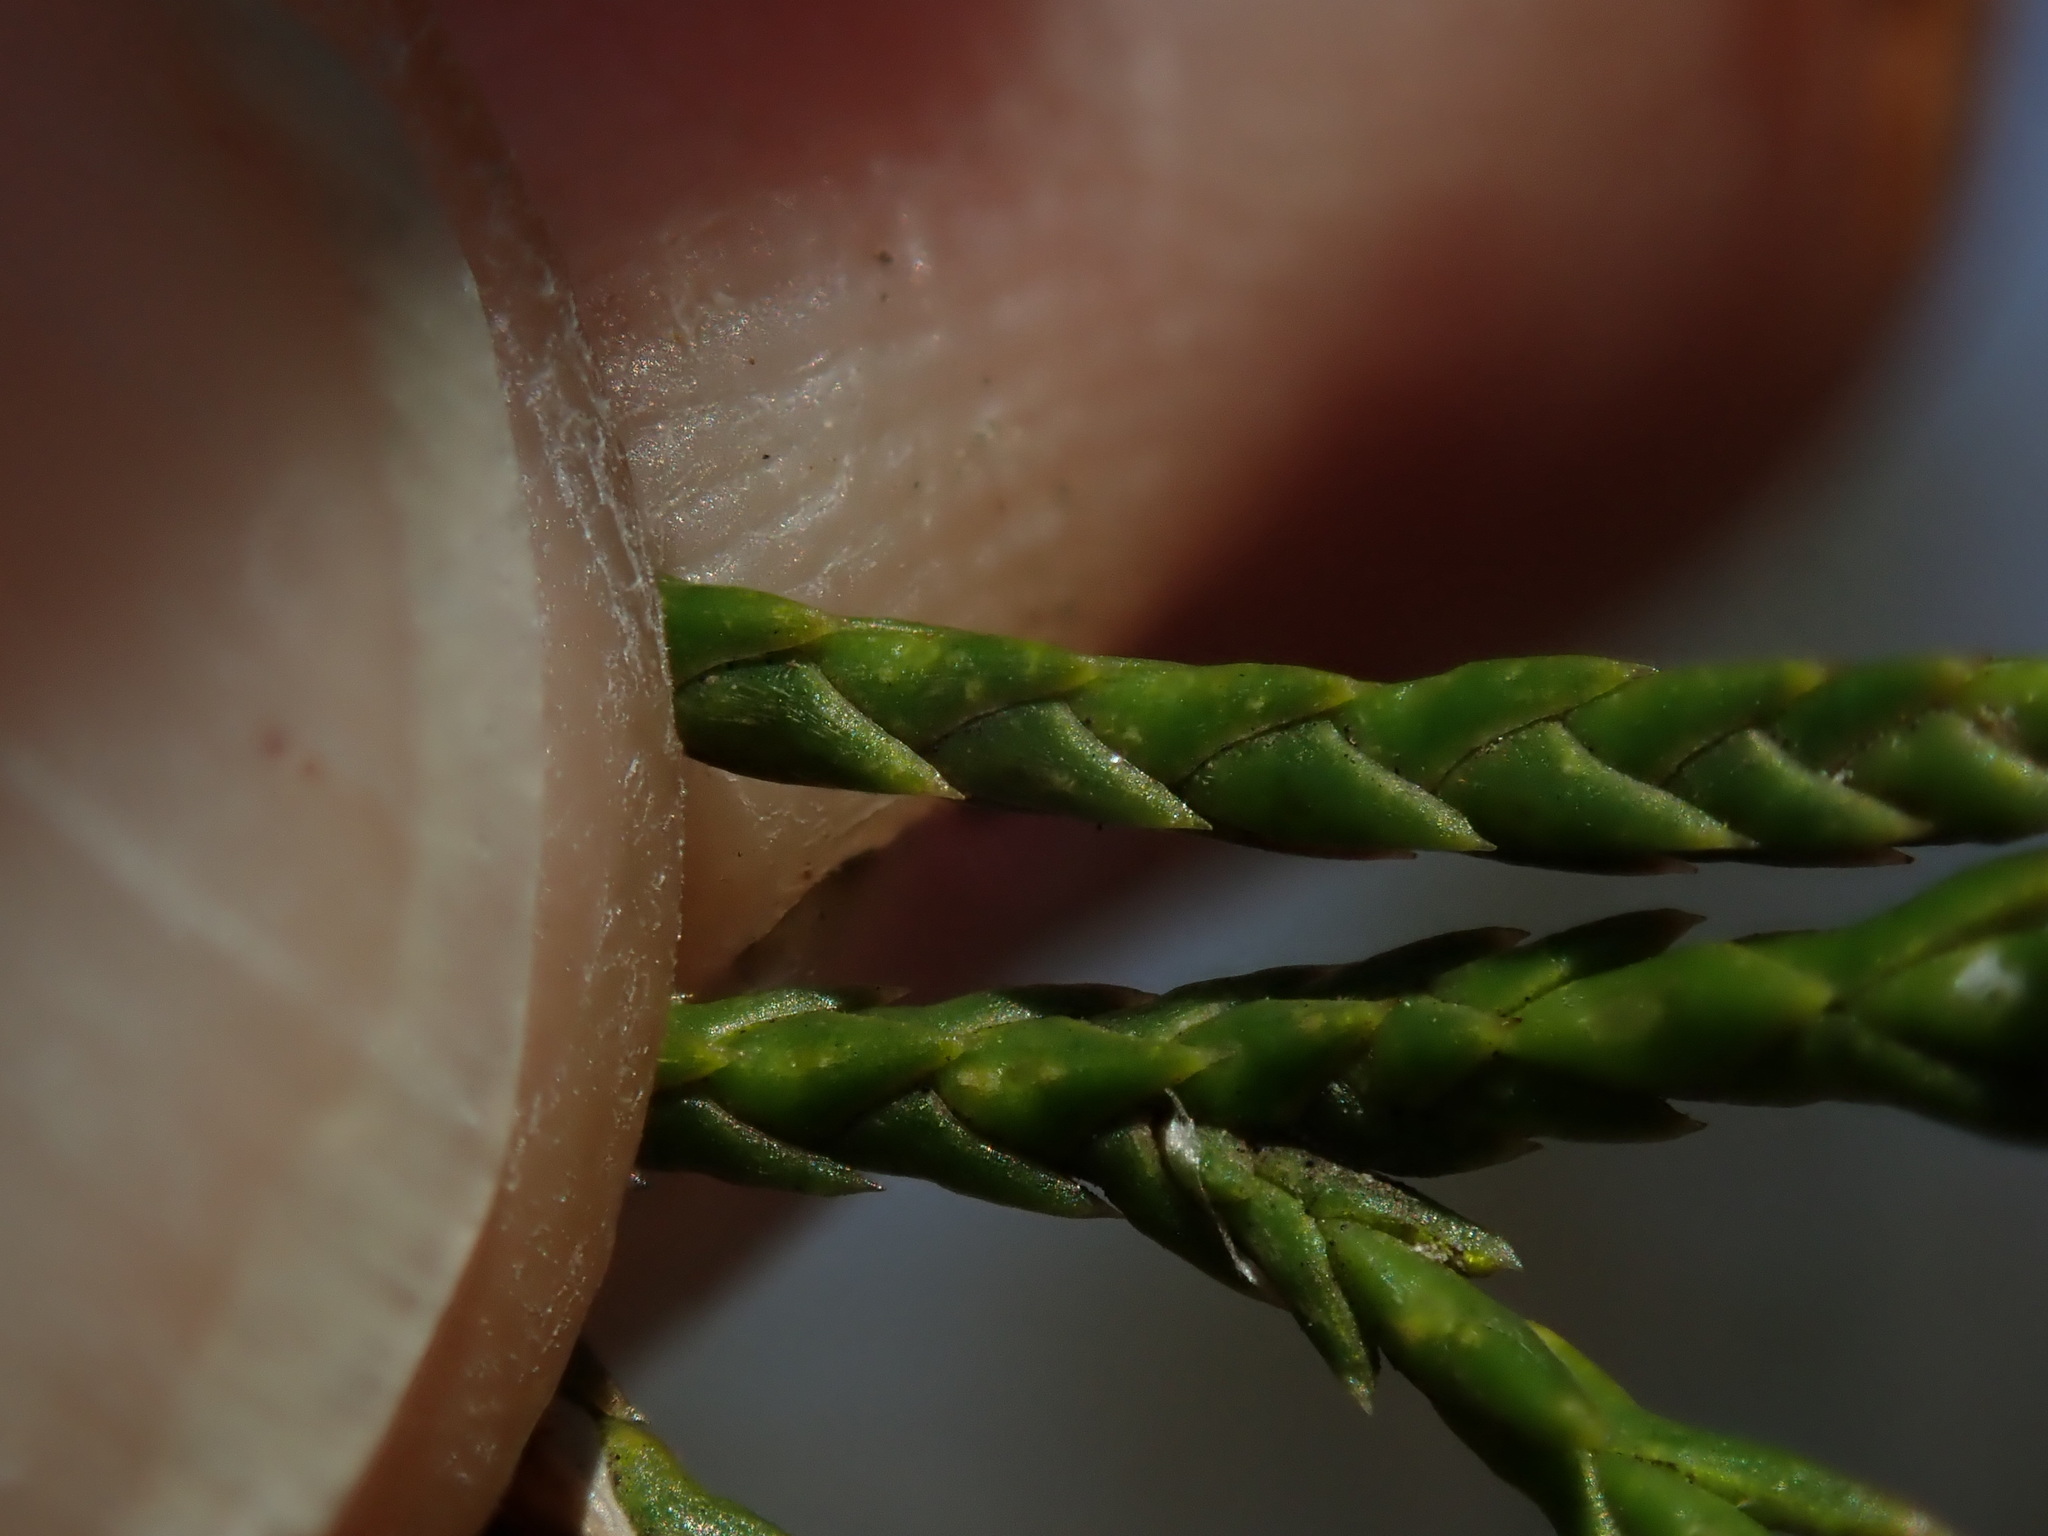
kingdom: Plantae
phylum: Tracheophyta
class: Pinopsida
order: Pinales
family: Cupressaceae
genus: Juniperus
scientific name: Juniperus virginiana
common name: Red juniper
